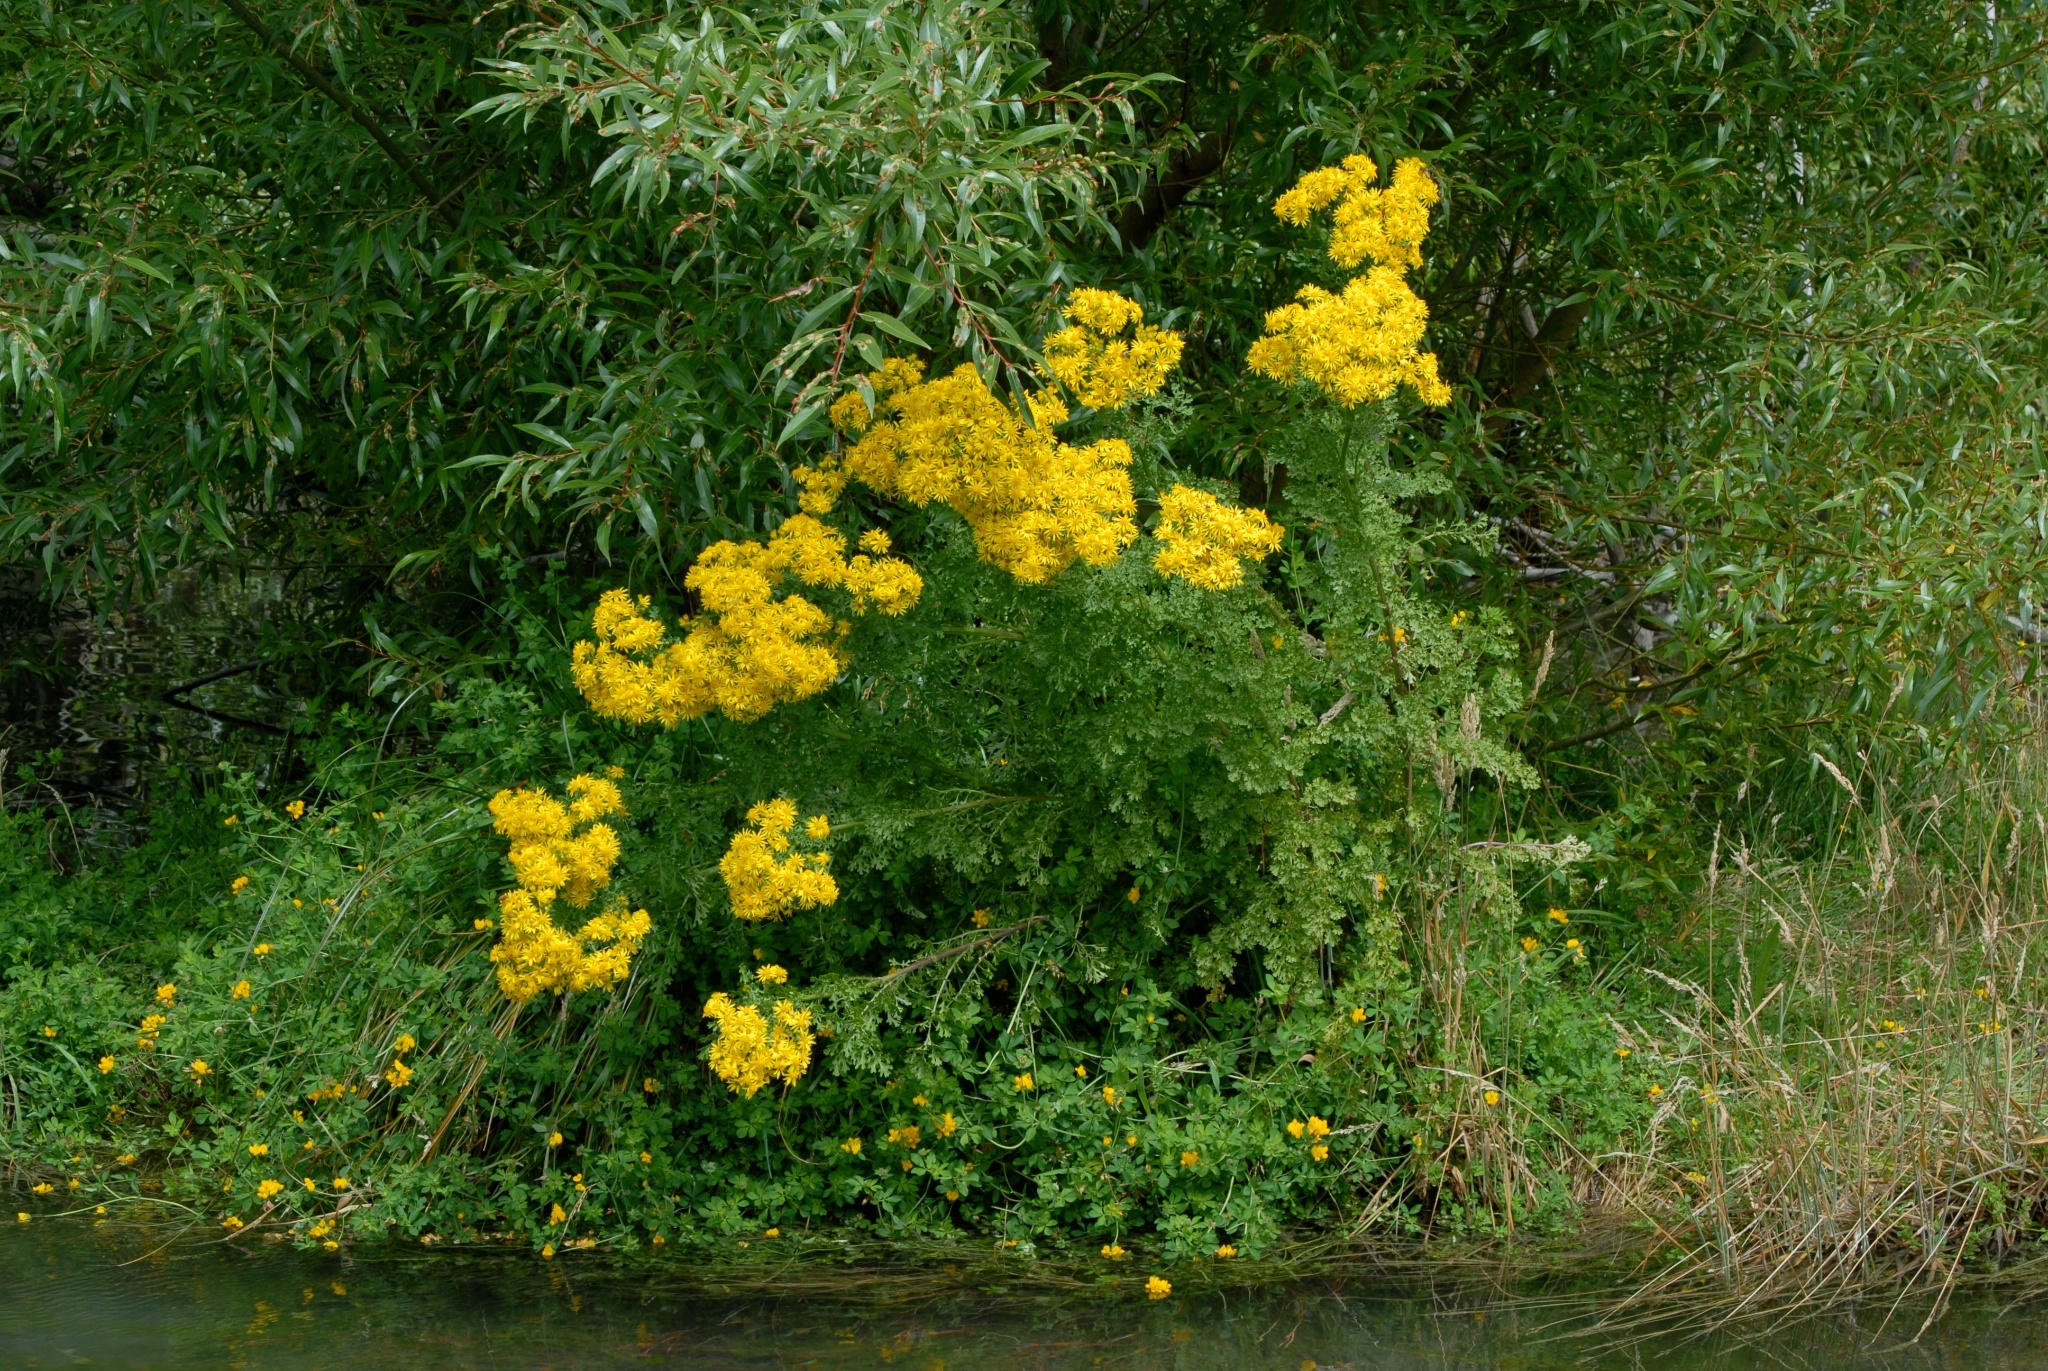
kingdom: Plantae
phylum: Tracheophyta
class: Magnoliopsida
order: Asterales
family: Asteraceae
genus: Jacobaea
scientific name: Jacobaea vulgaris
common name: Stinking willie
